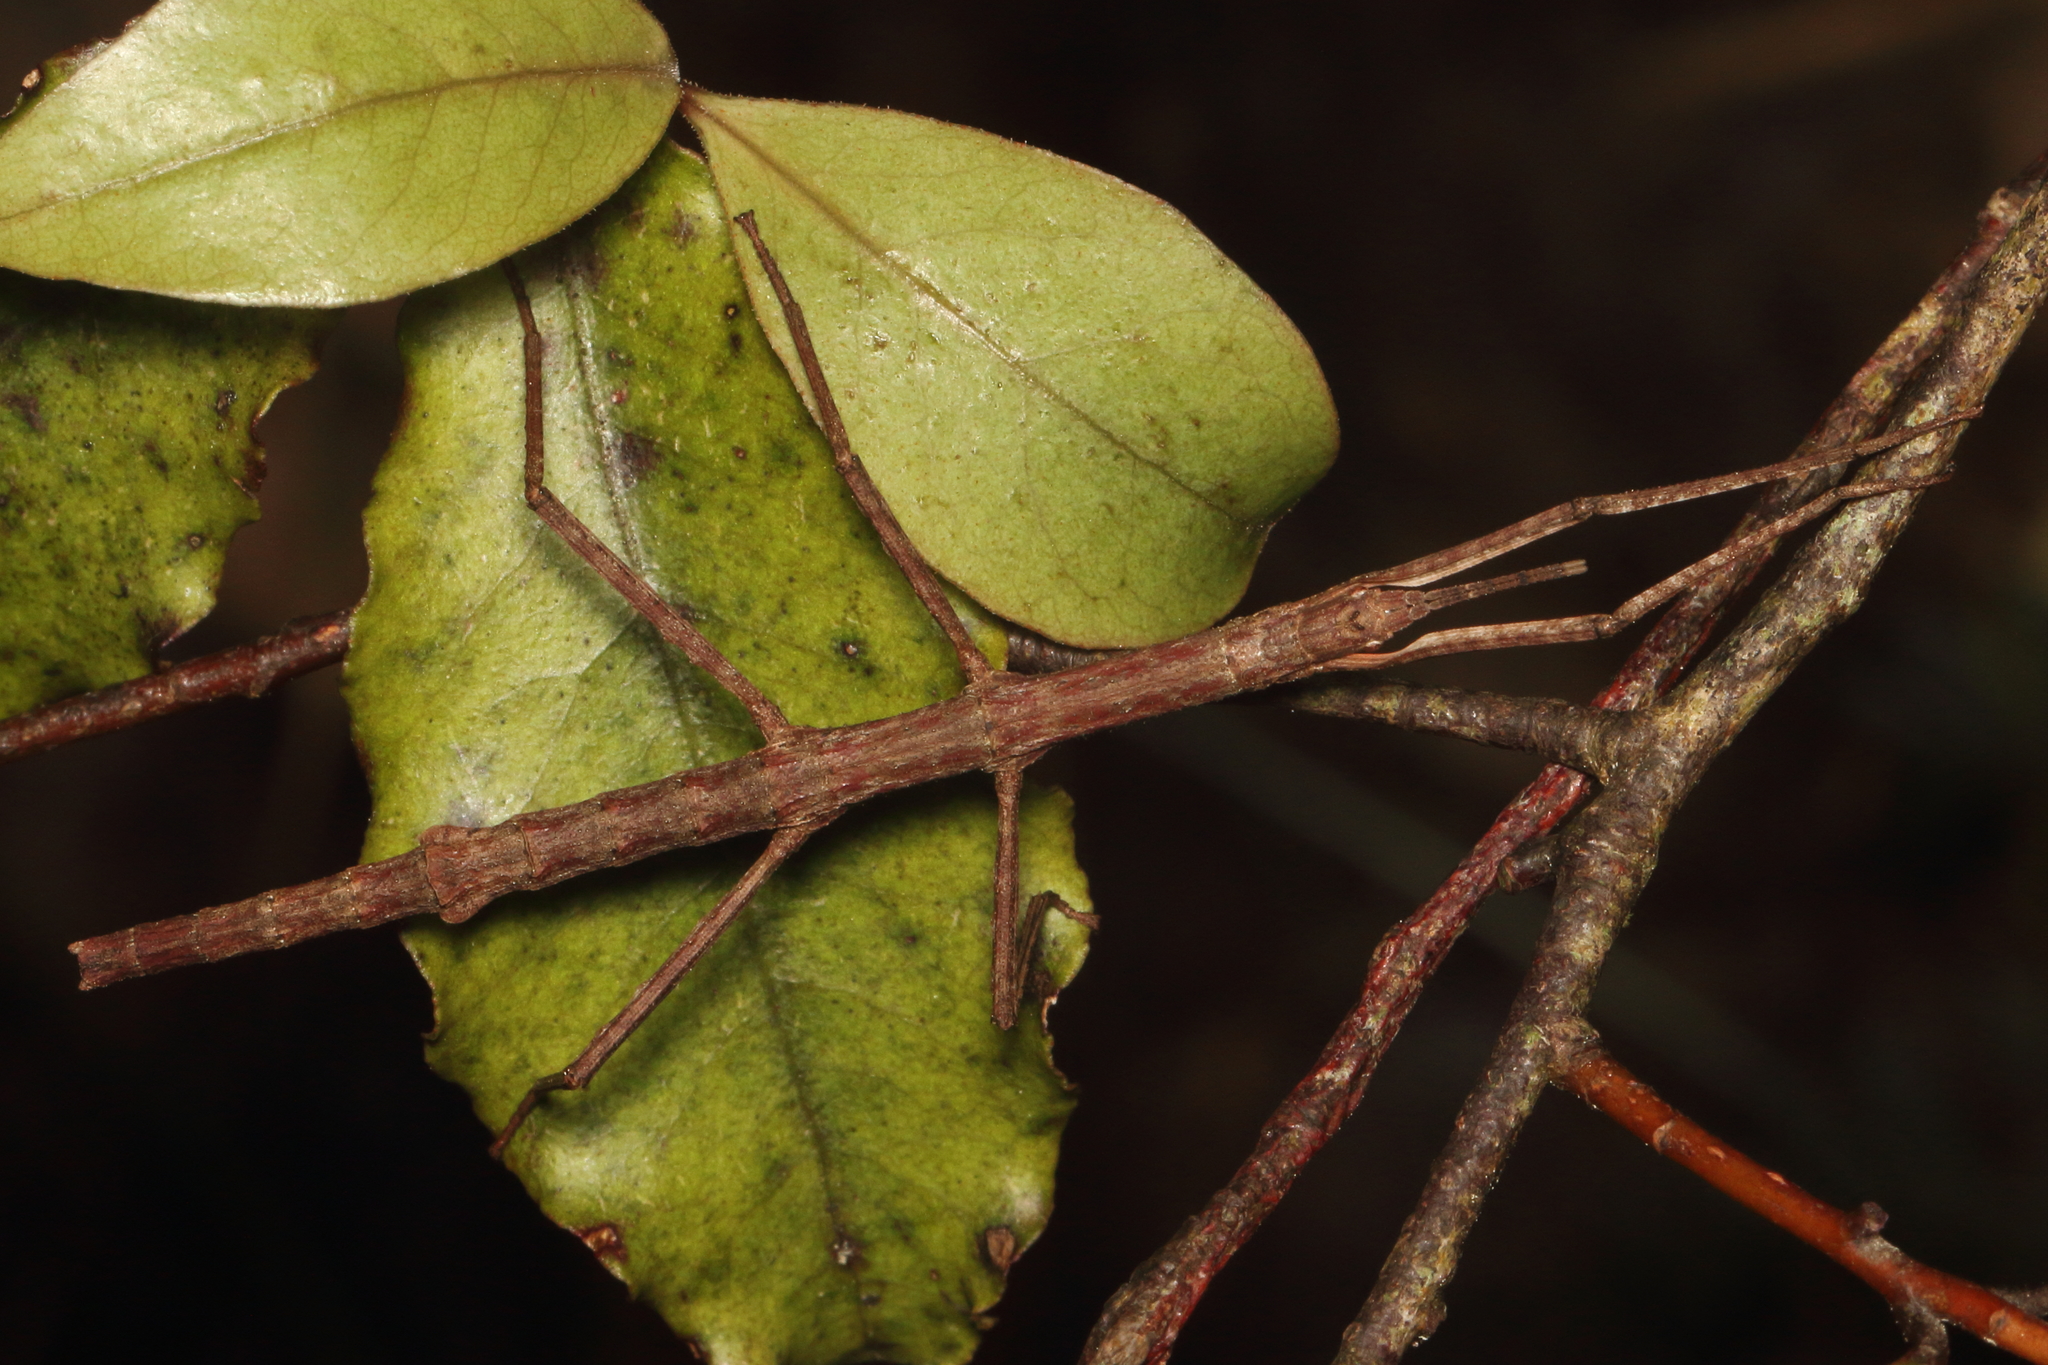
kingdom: Animalia
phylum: Arthropoda
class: Insecta
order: Phasmida
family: Phasmatidae
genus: Tectarchus
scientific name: Tectarchus salebrosus
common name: Lesser rough-skinned stick insect
